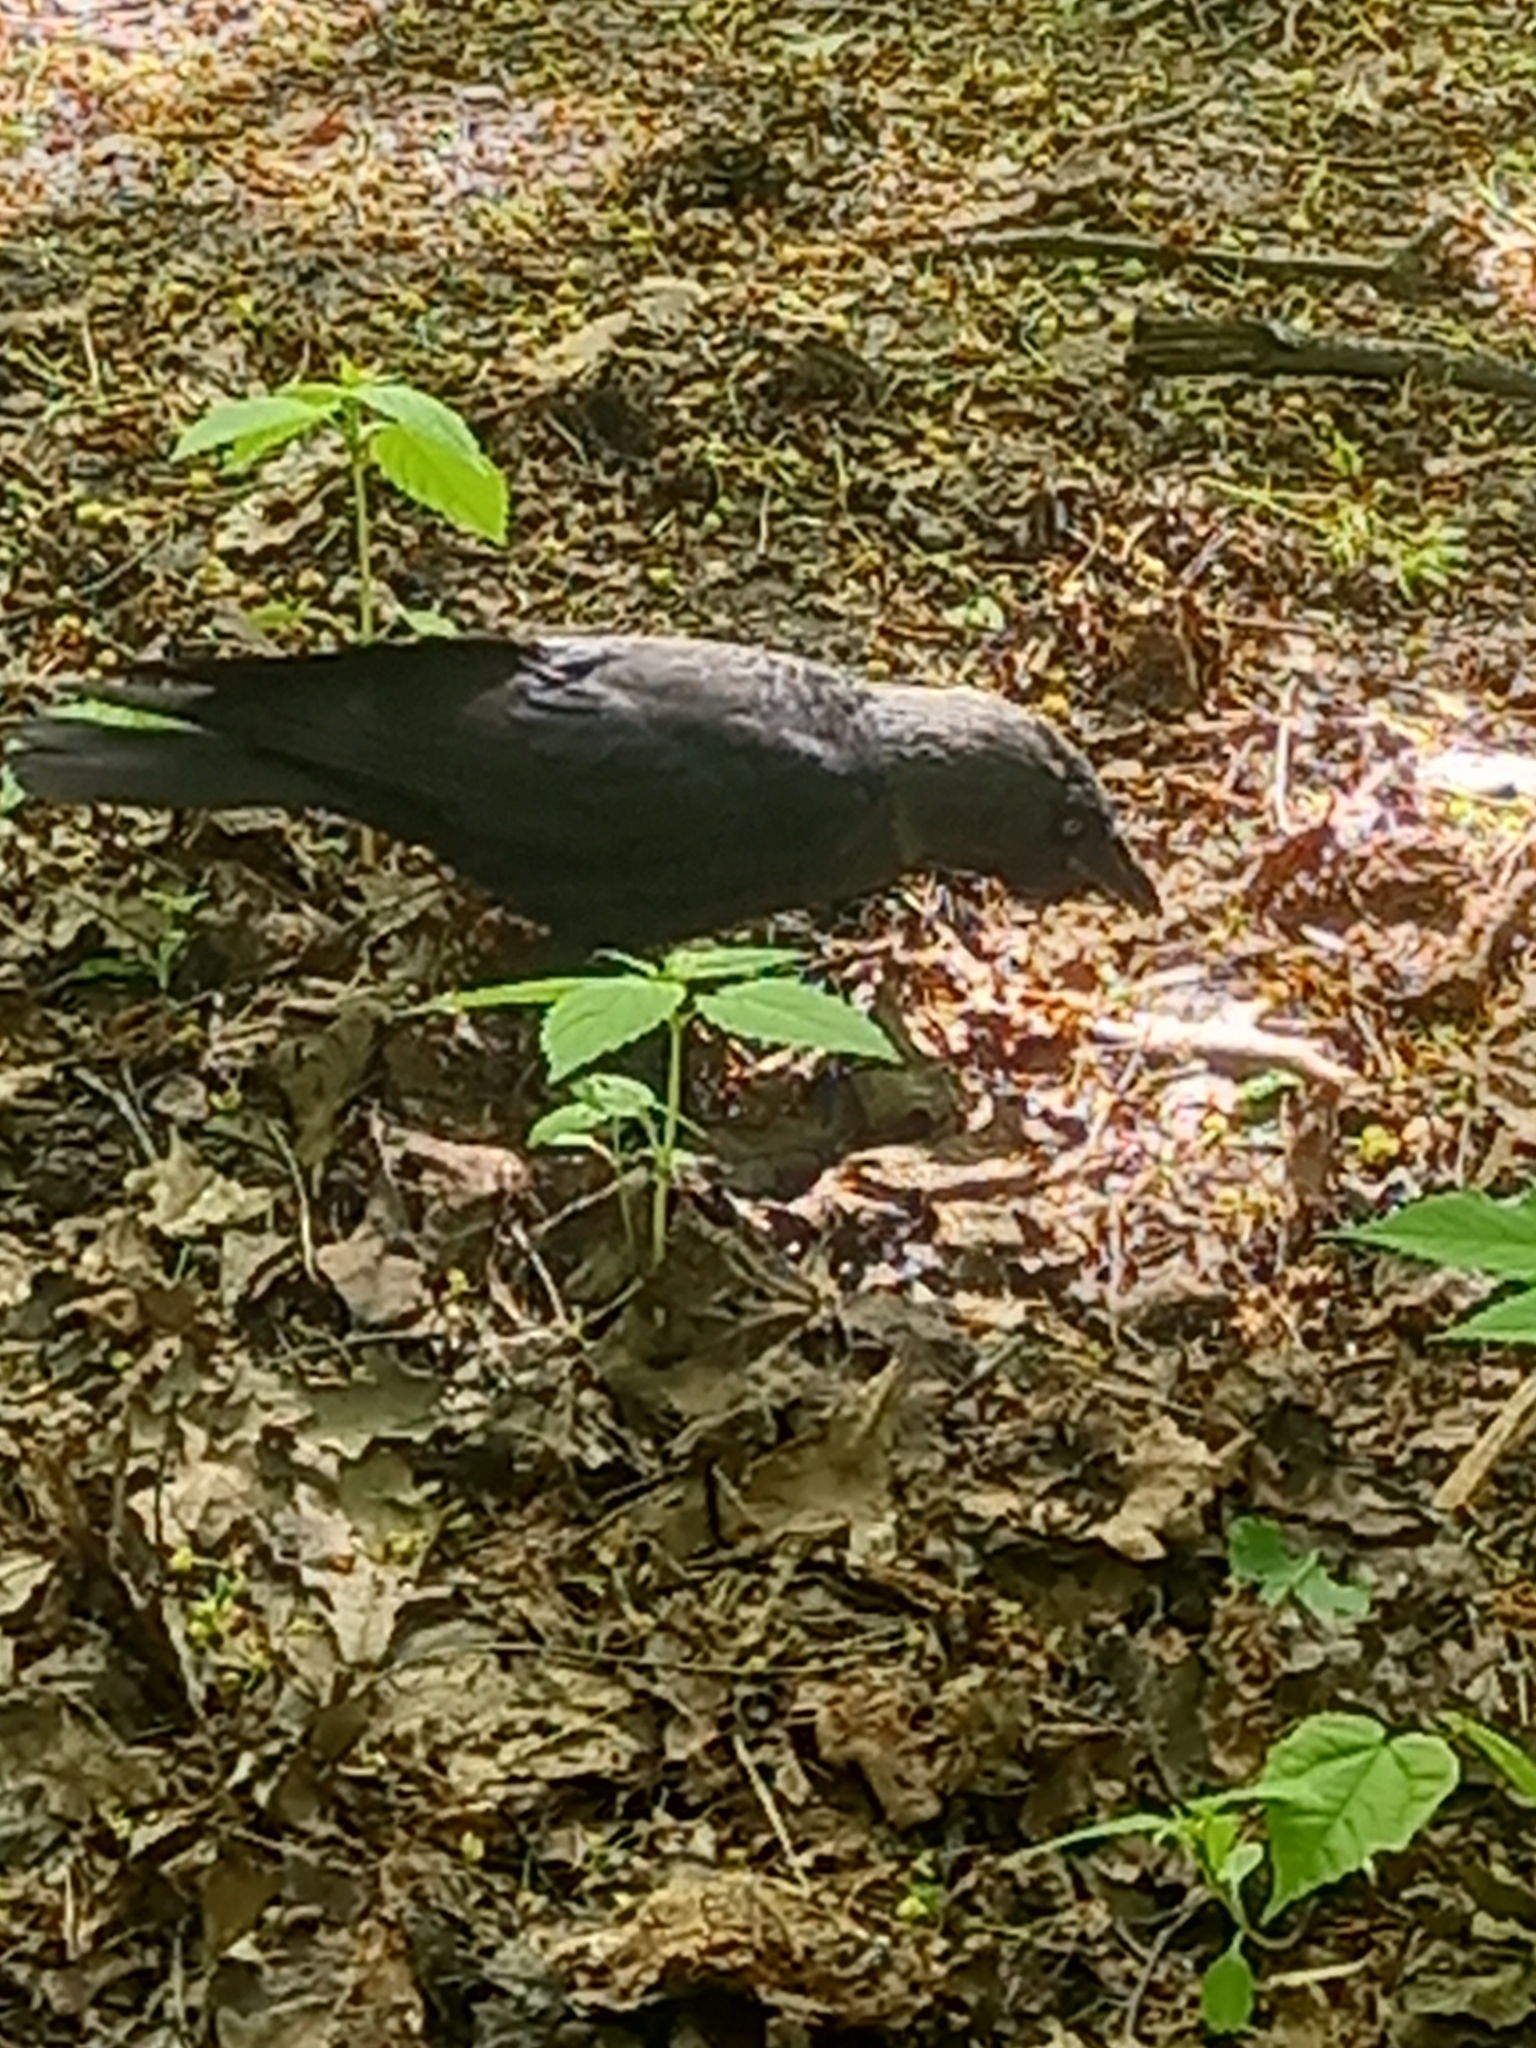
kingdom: Animalia
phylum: Chordata
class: Aves
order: Passeriformes
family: Corvidae
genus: Coloeus
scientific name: Coloeus monedula
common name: Western jackdaw
